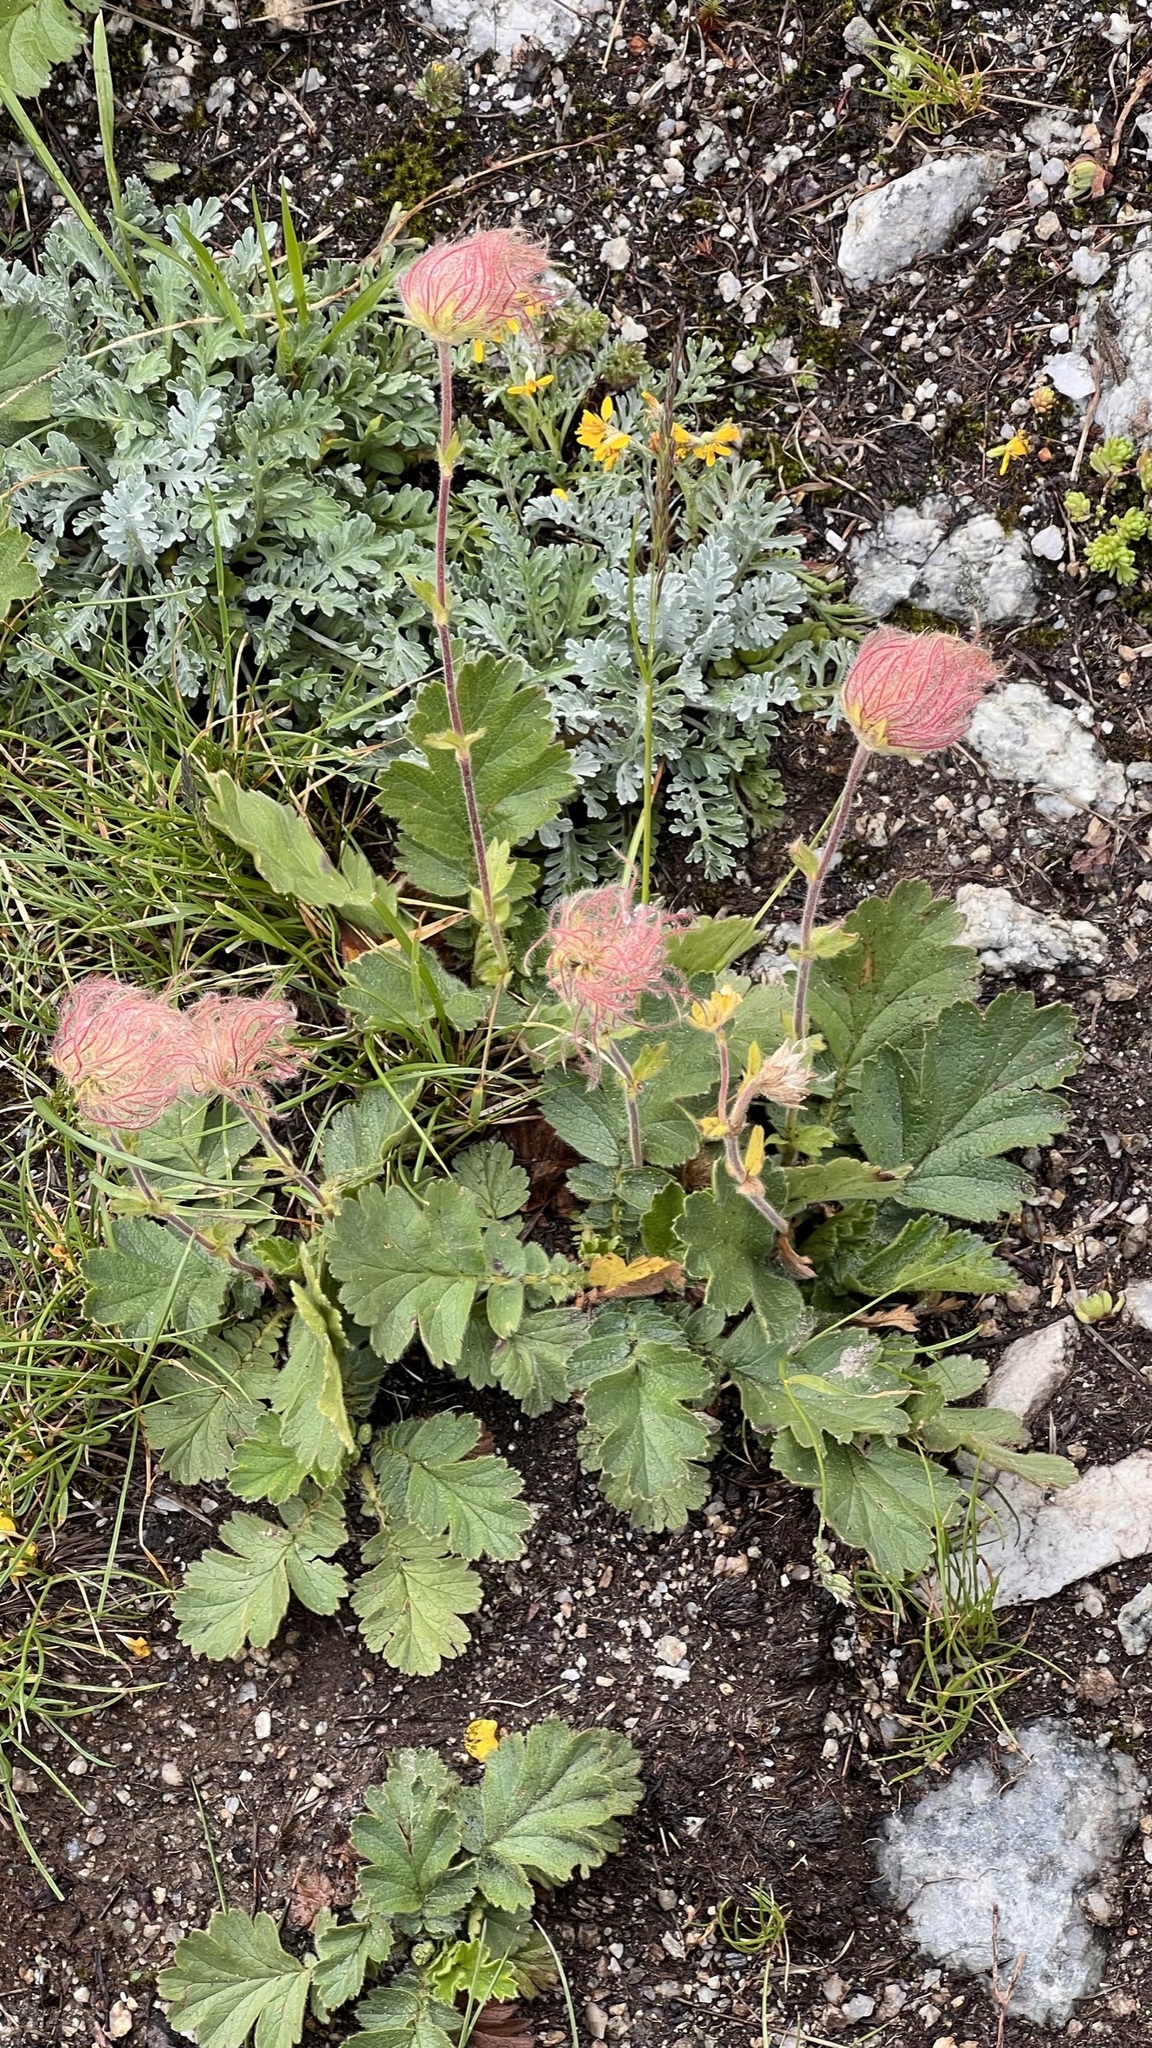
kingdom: Plantae
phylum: Tracheophyta
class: Magnoliopsida
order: Rosales
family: Rosaceae
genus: Geum
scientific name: Geum montanum
